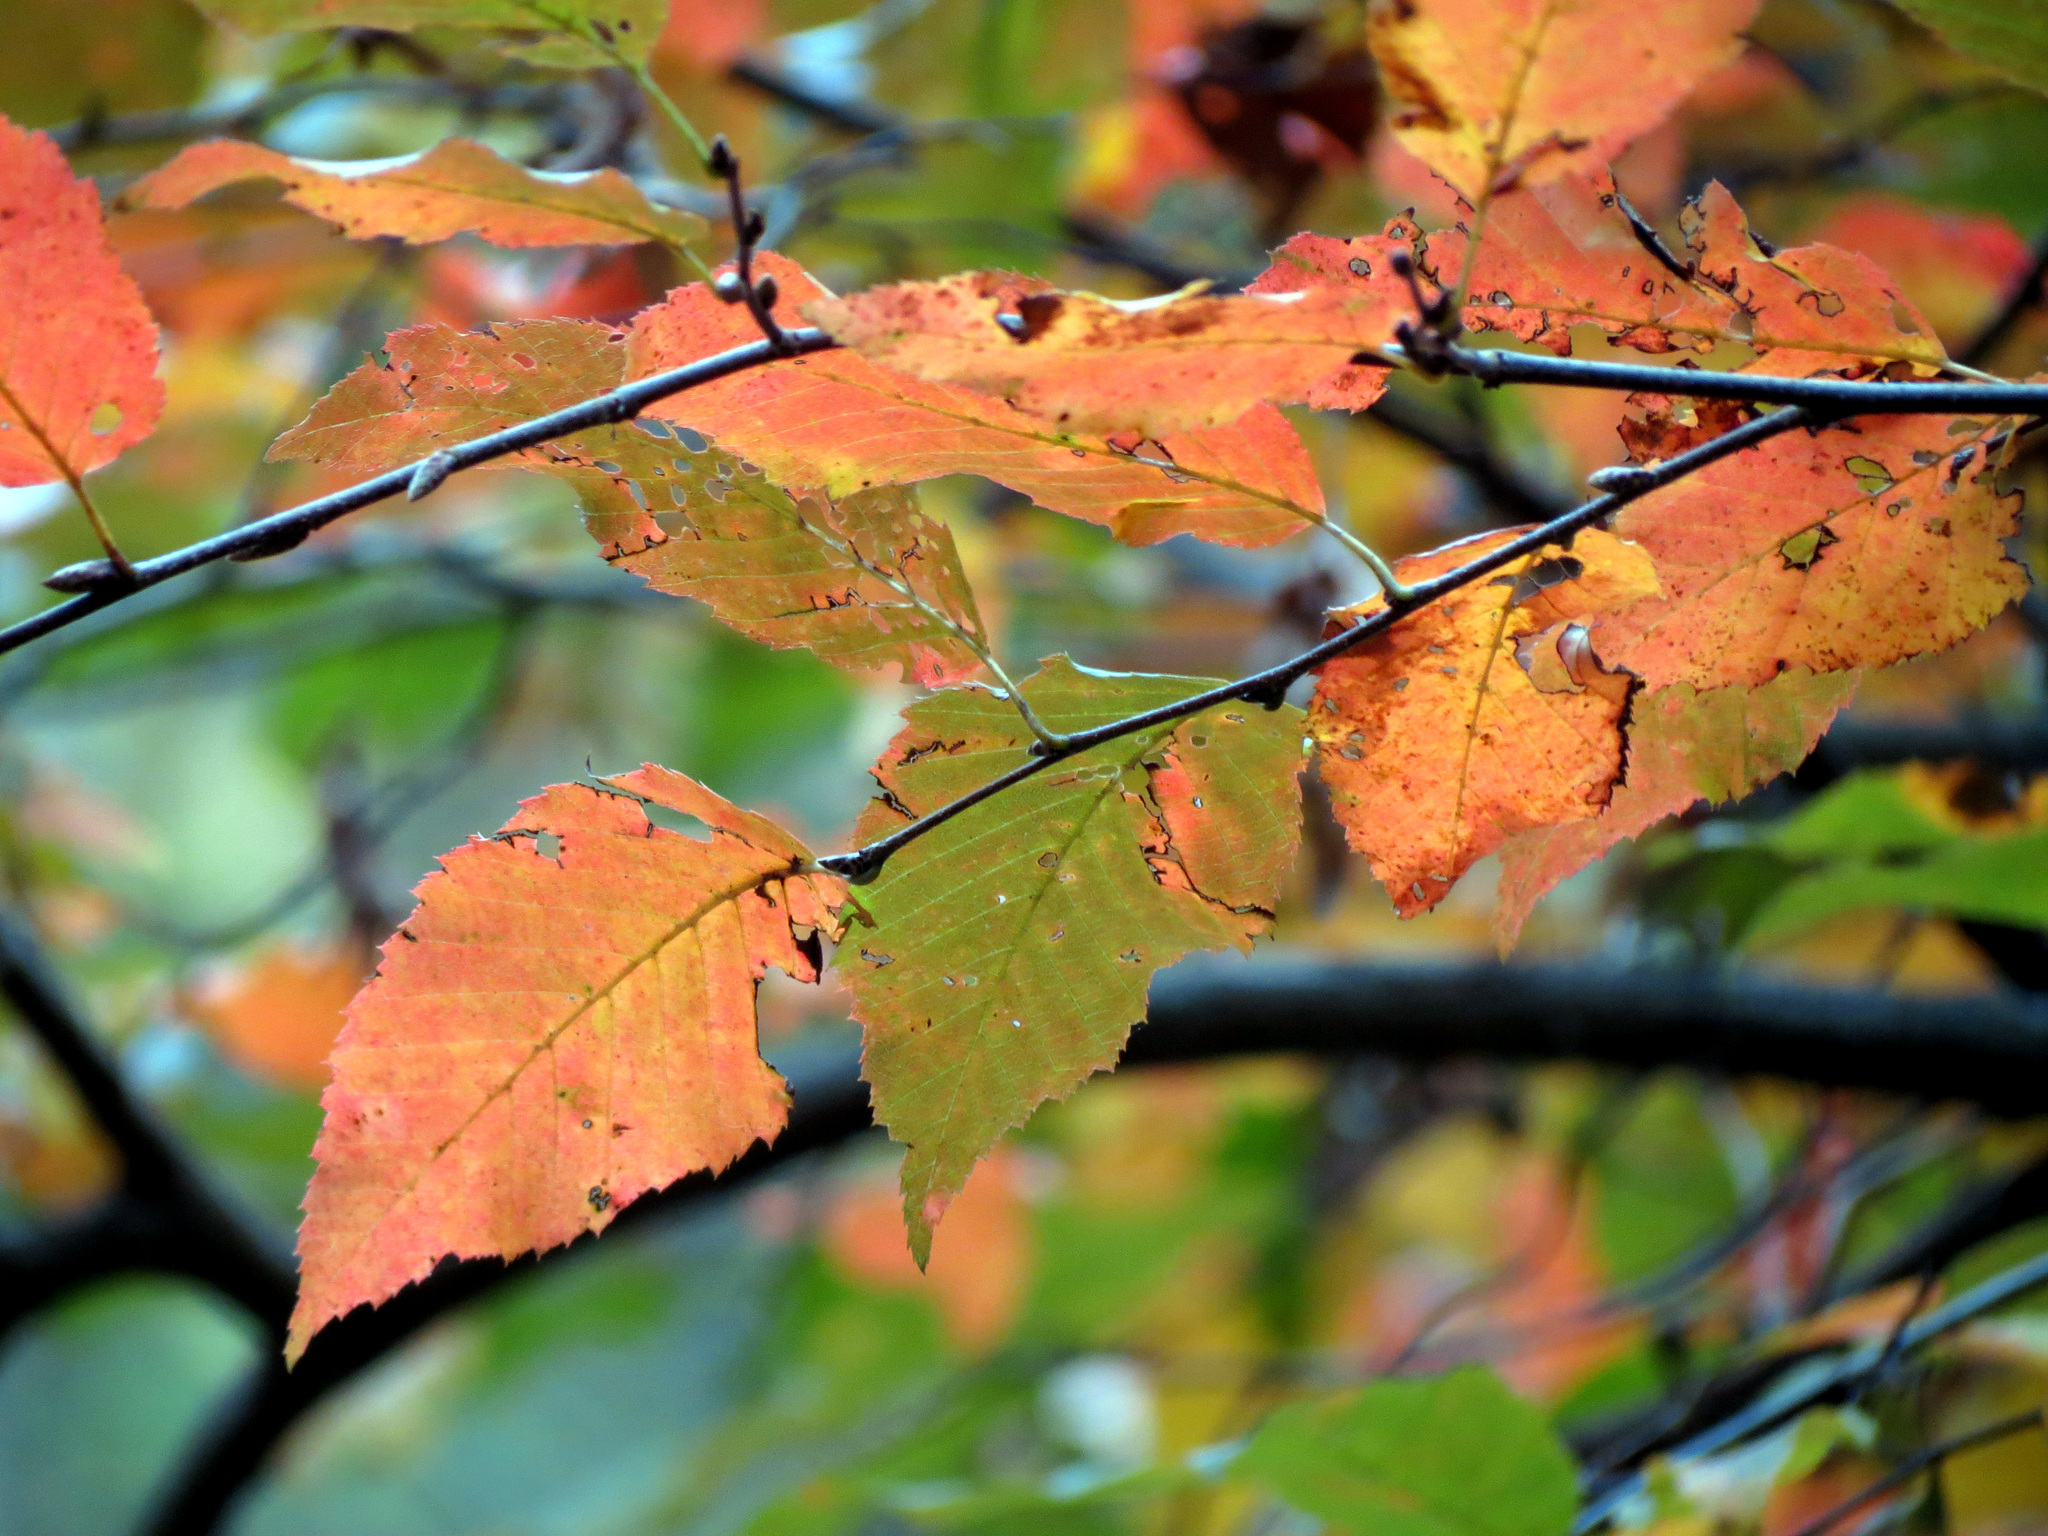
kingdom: Plantae
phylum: Tracheophyta
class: Magnoliopsida
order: Fagales
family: Betulaceae
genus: Carpinus
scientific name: Carpinus caroliniana
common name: American hornbeam
